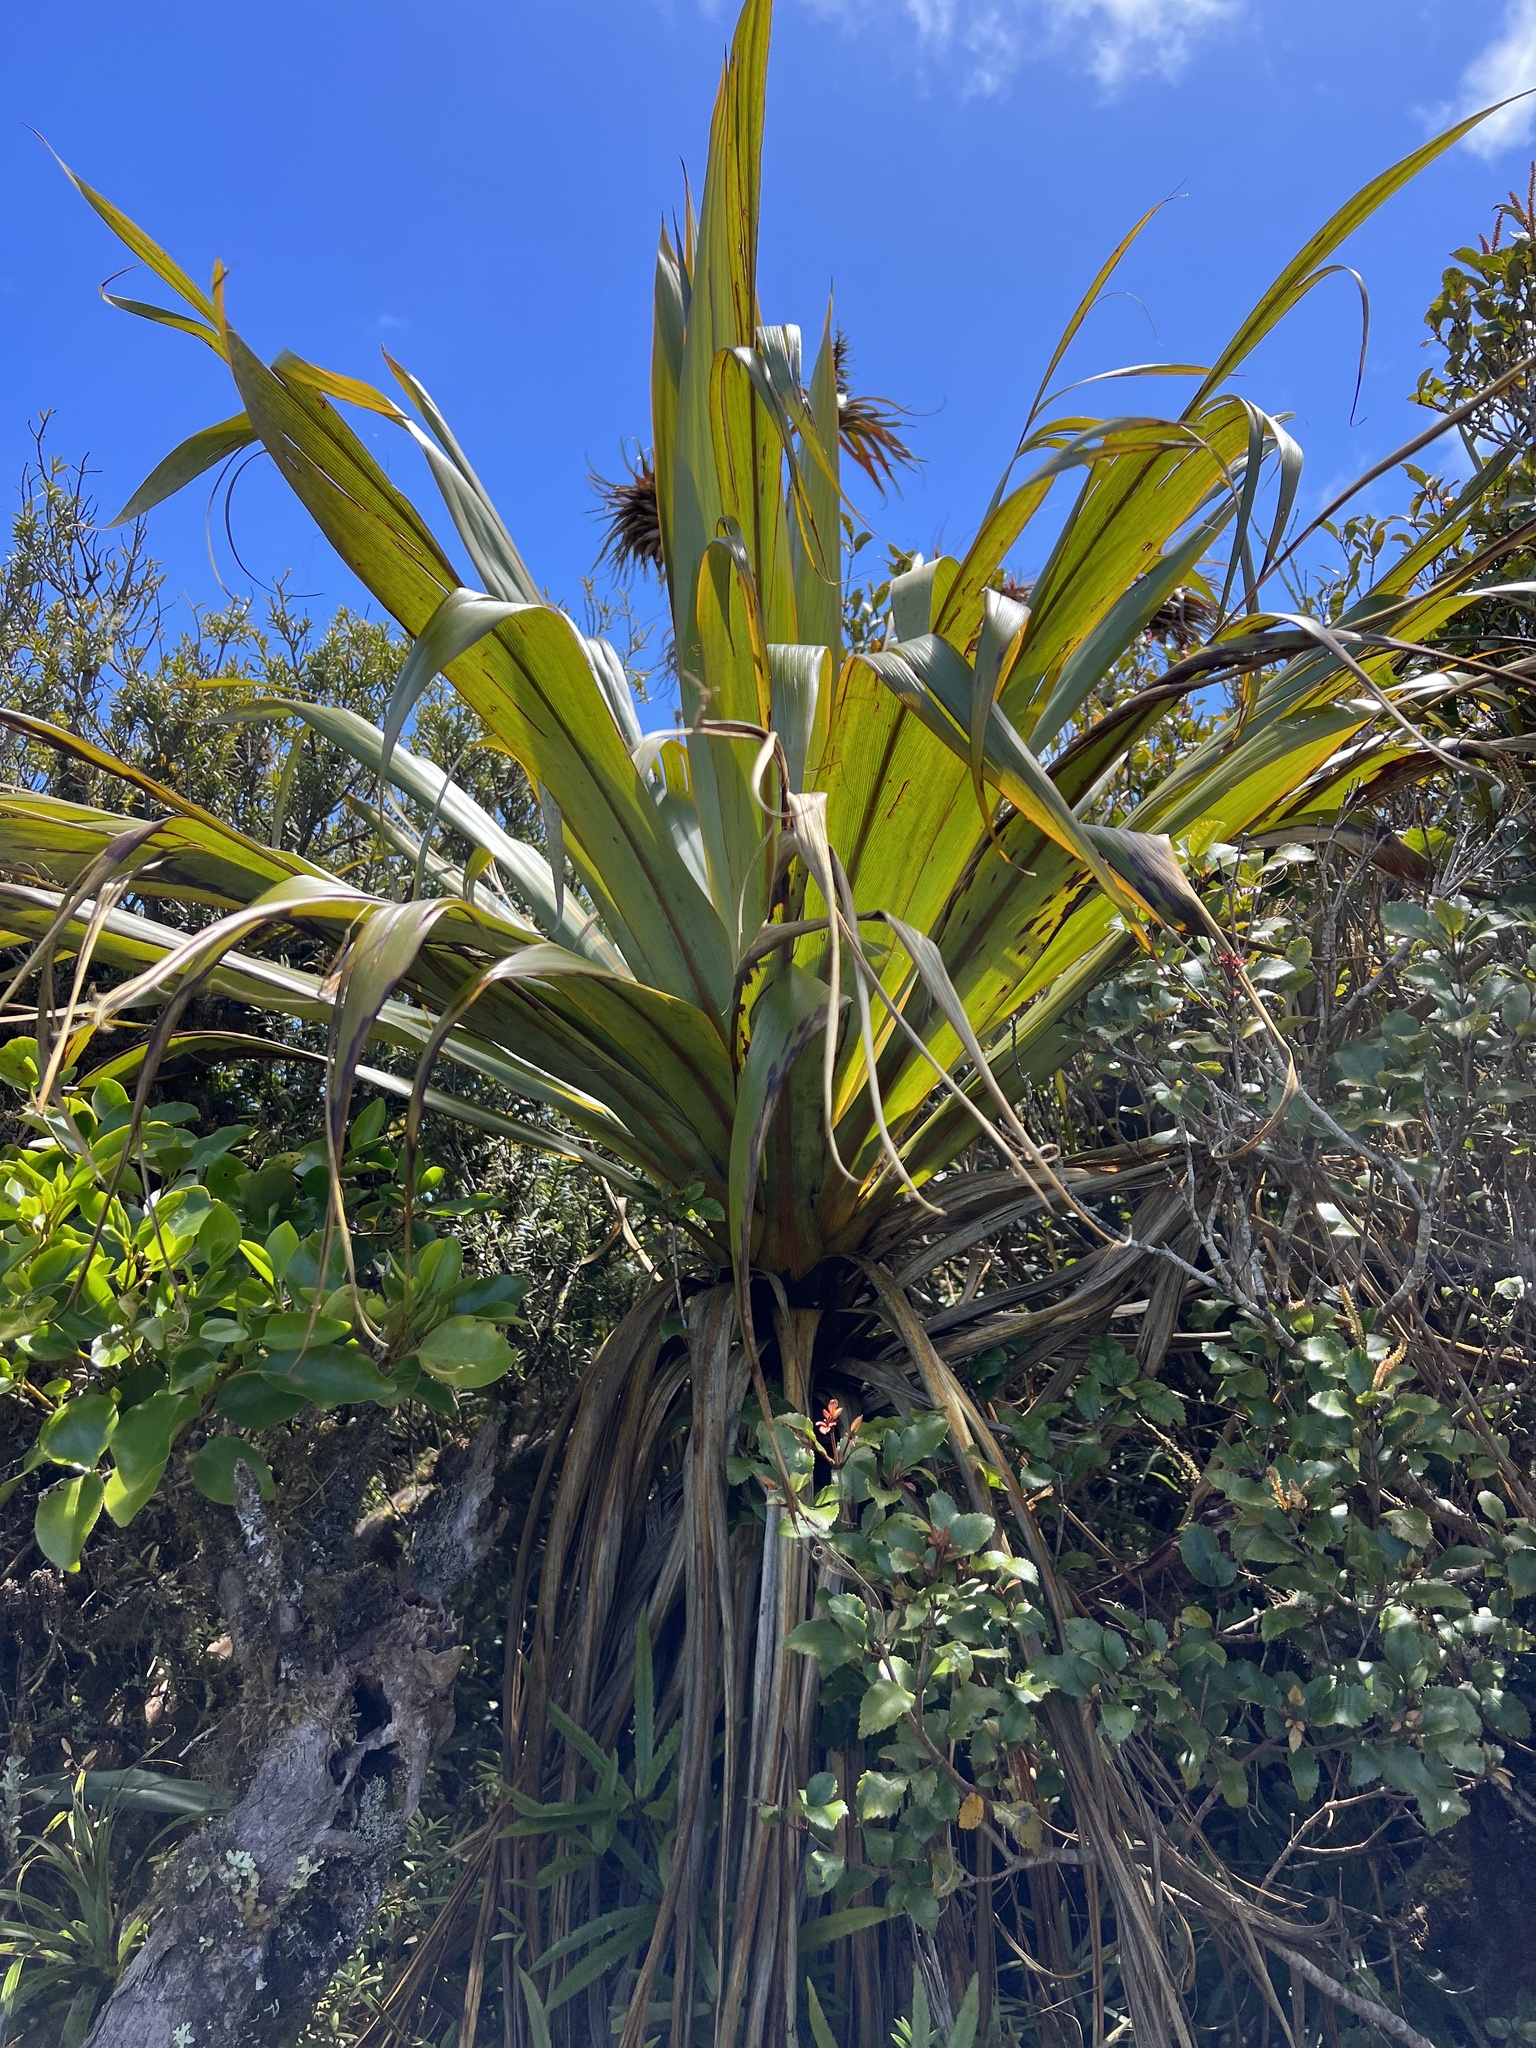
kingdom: Plantae
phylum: Tracheophyta
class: Liliopsida
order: Asparagales
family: Asparagaceae
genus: Cordyline
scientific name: Cordyline indivisa
